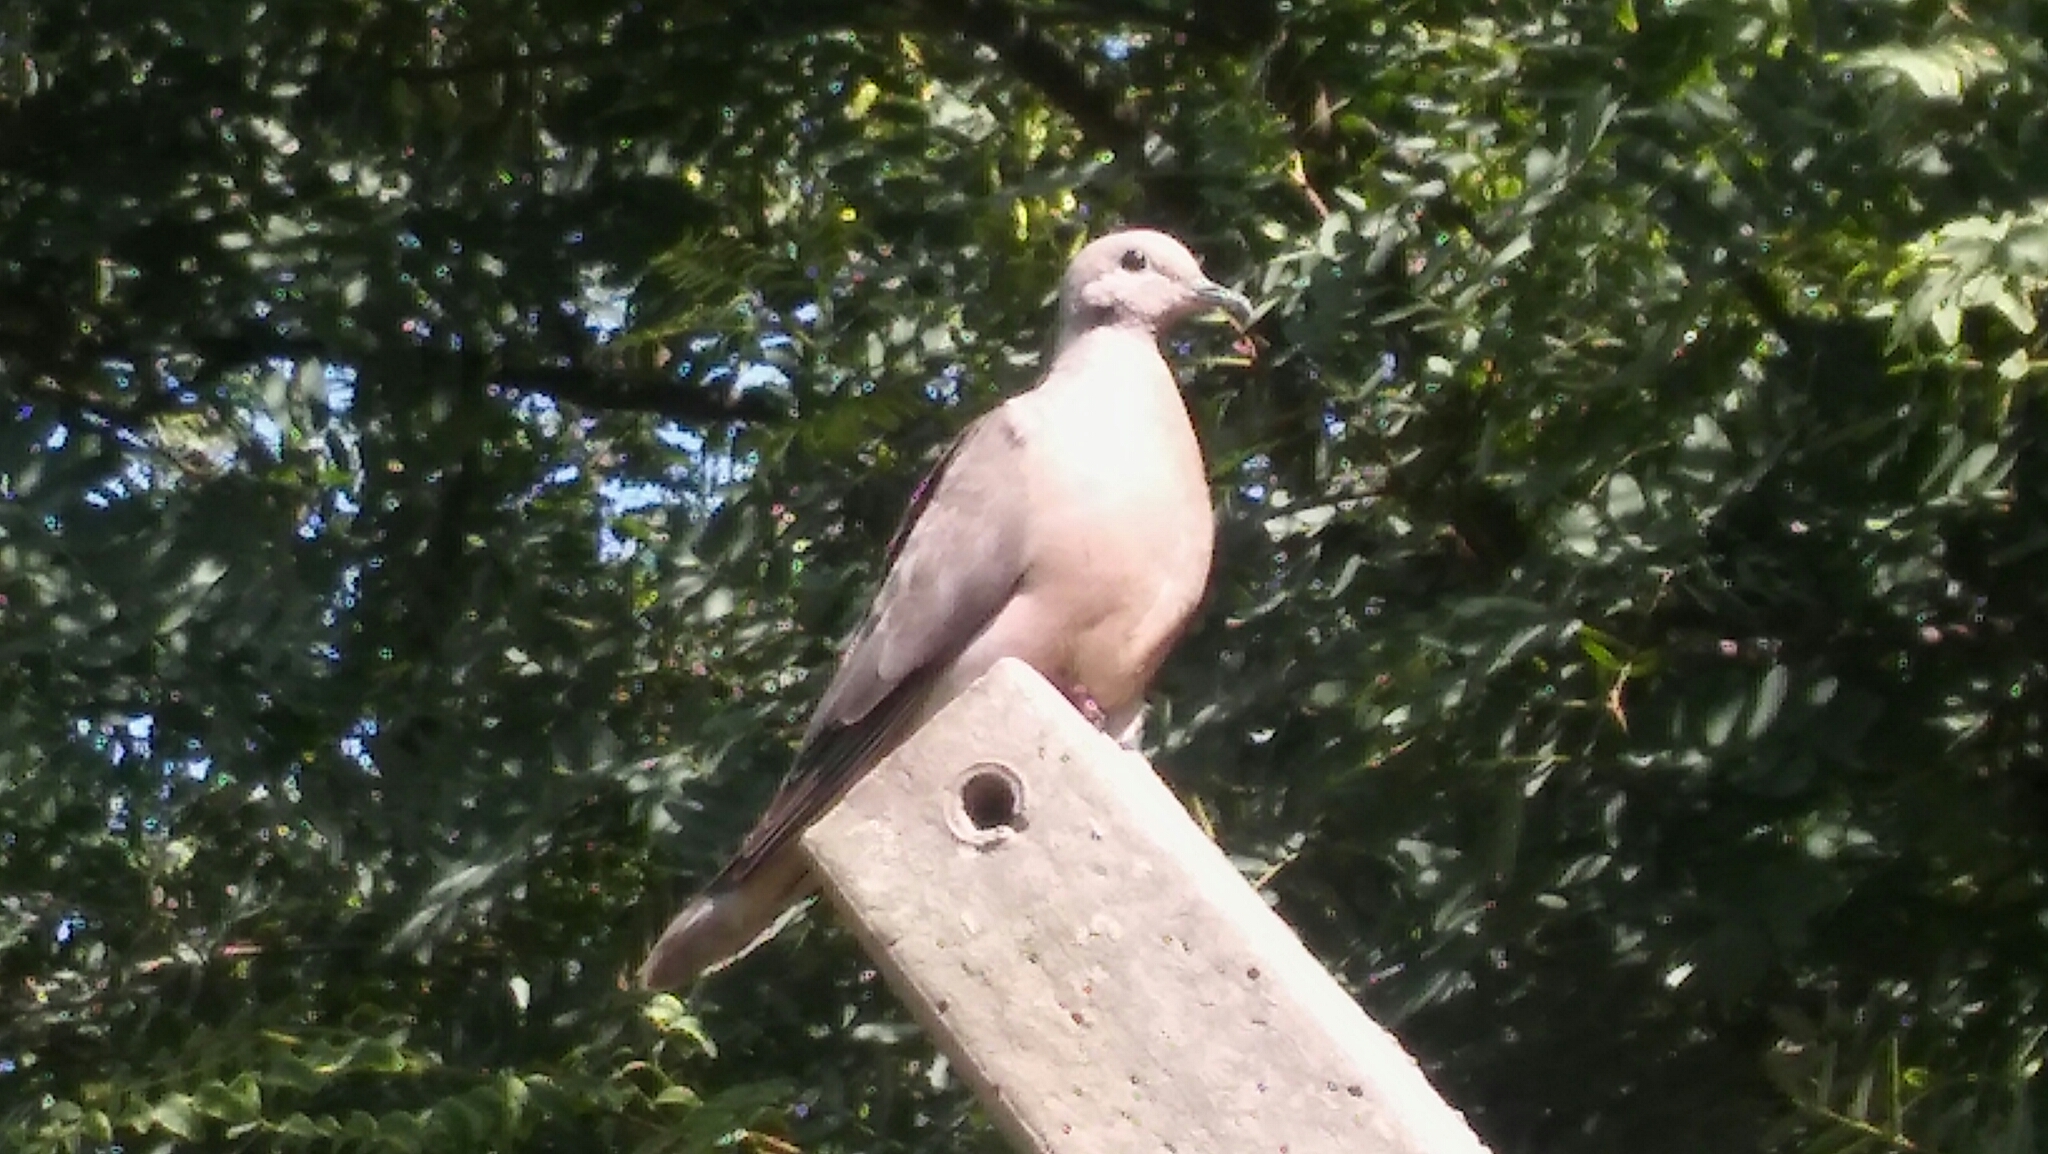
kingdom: Animalia
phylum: Chordata
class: Aves
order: Columbiformes
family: Columbidae
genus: Zenaida
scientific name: Zenaida auriculata
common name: Eared dove
